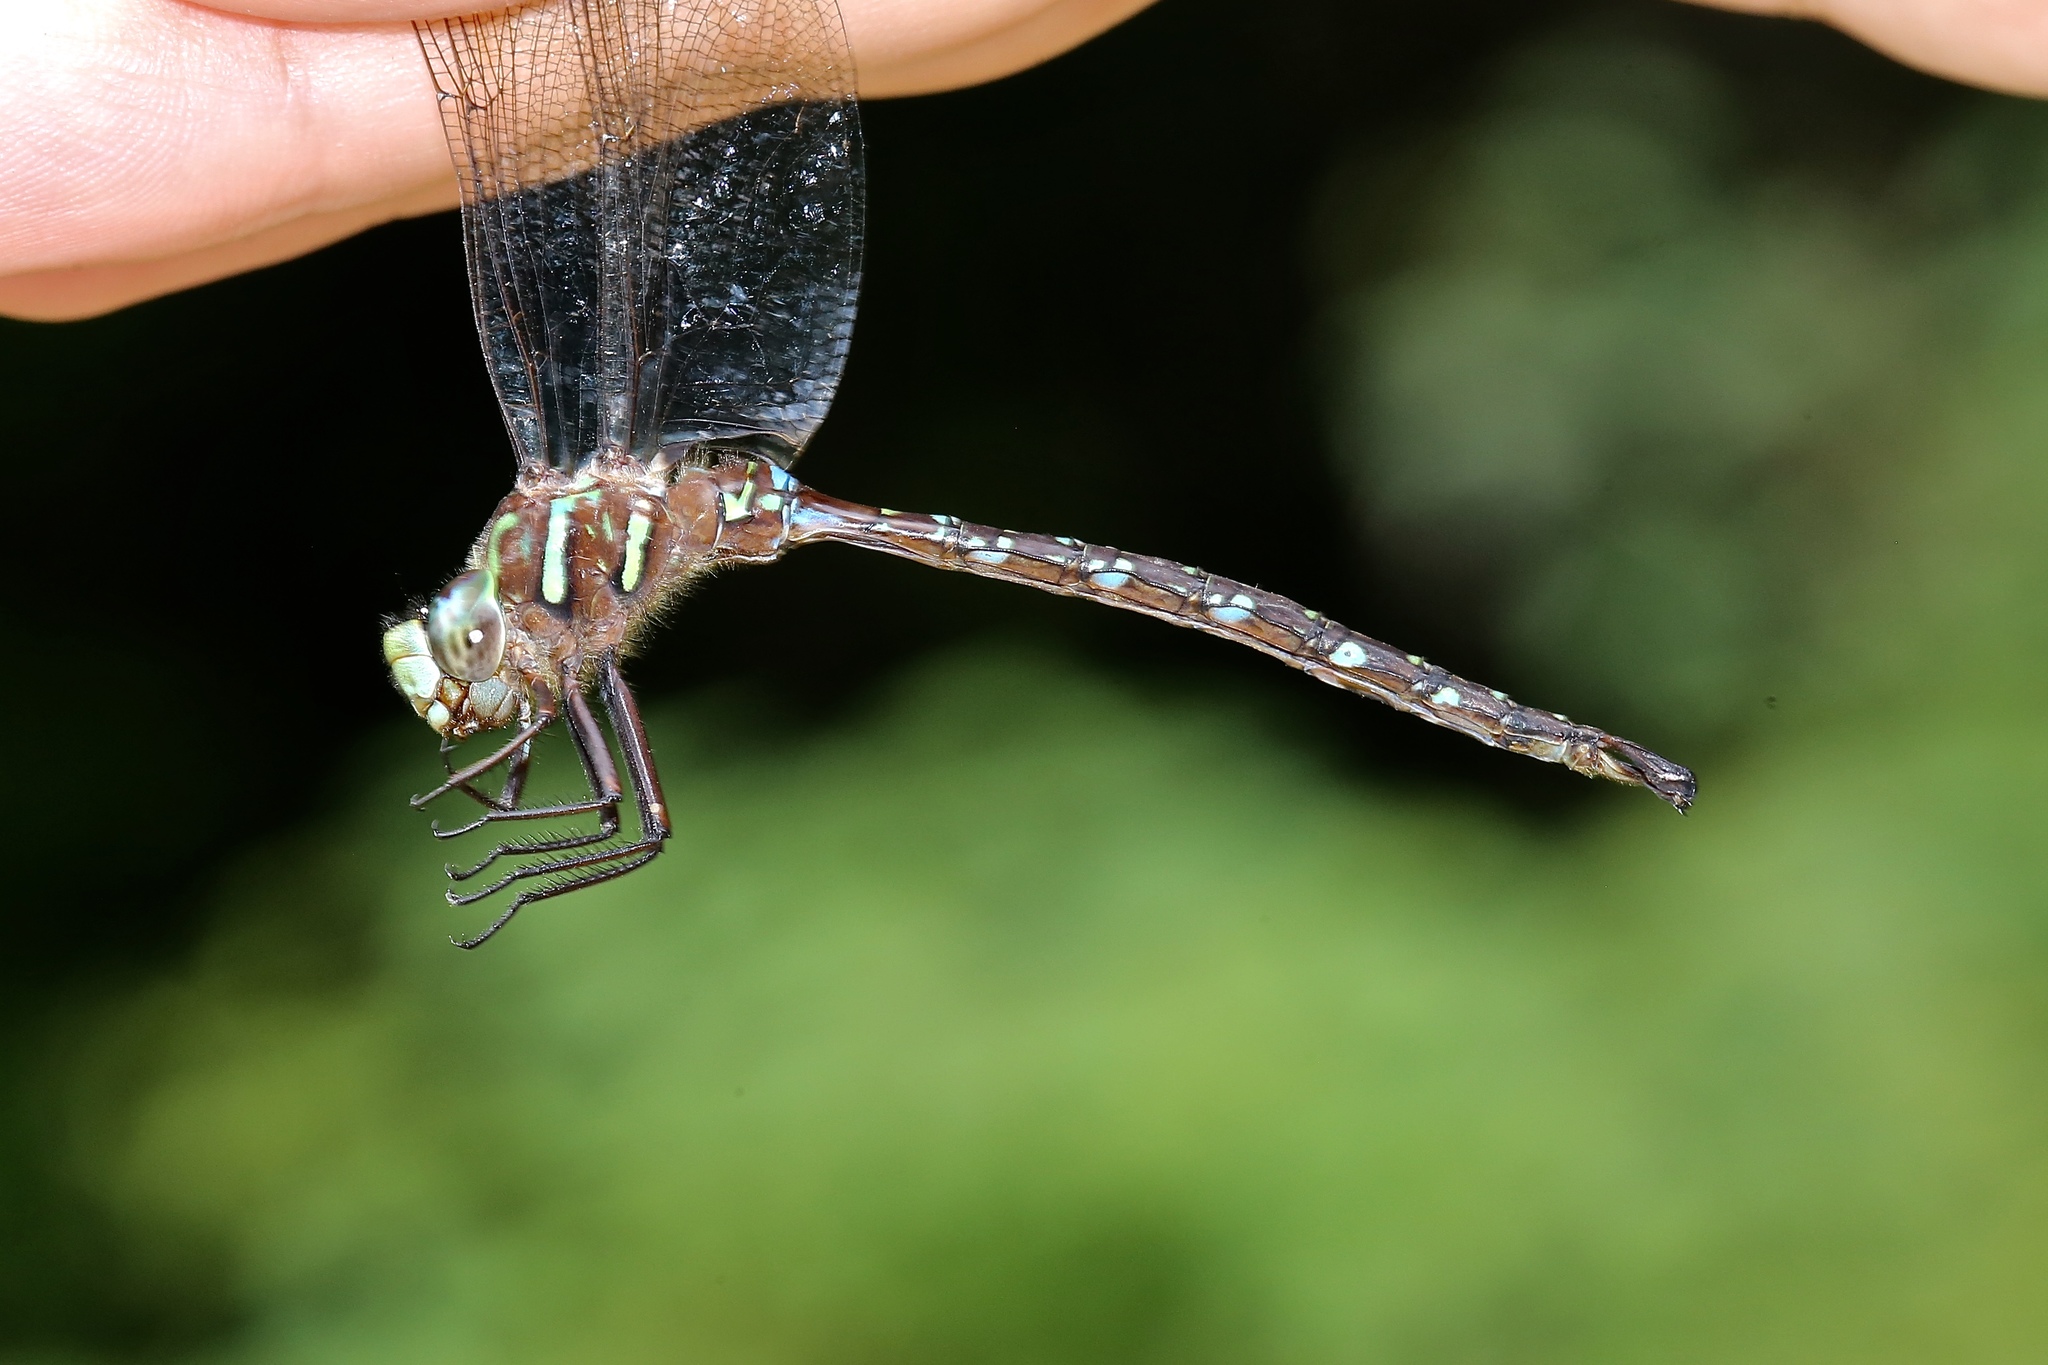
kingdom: Animalia
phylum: Arthropoda
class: Insecta
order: Odonata
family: Aeshnidae
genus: Aeshna
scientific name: Aeshna umbrosa
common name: Shadow darner
